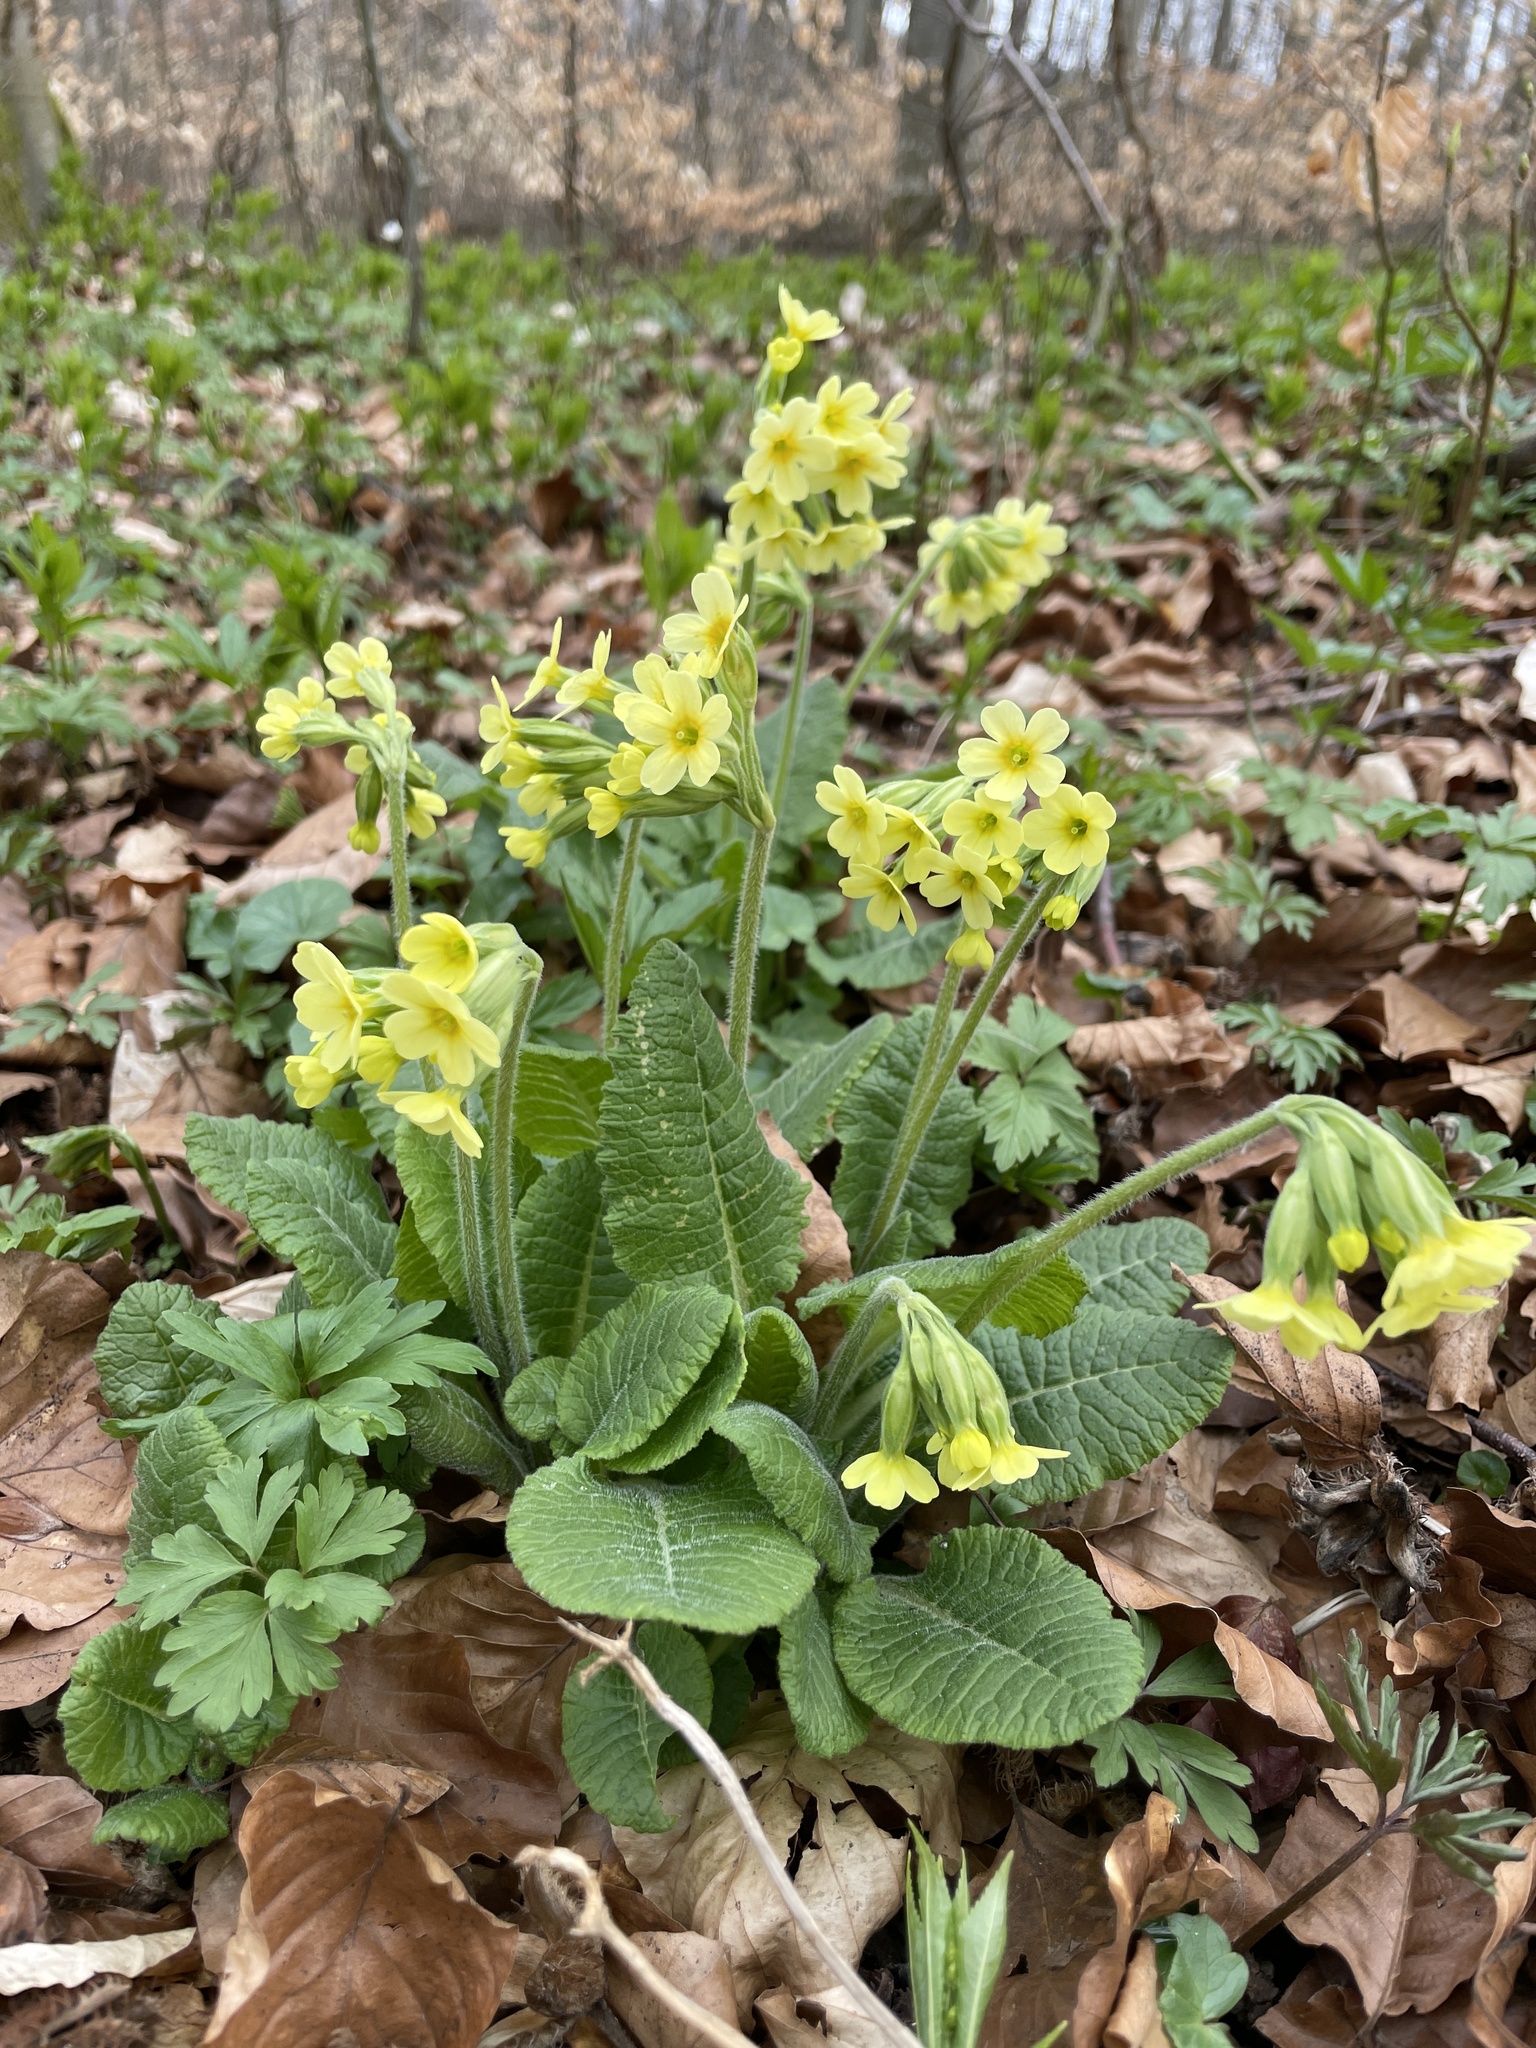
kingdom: Plantae
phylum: Tracheophyta
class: Magnoliopsida
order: Ericales
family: Primulaceae
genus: Primula
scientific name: Primula elatior
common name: Oxlip
